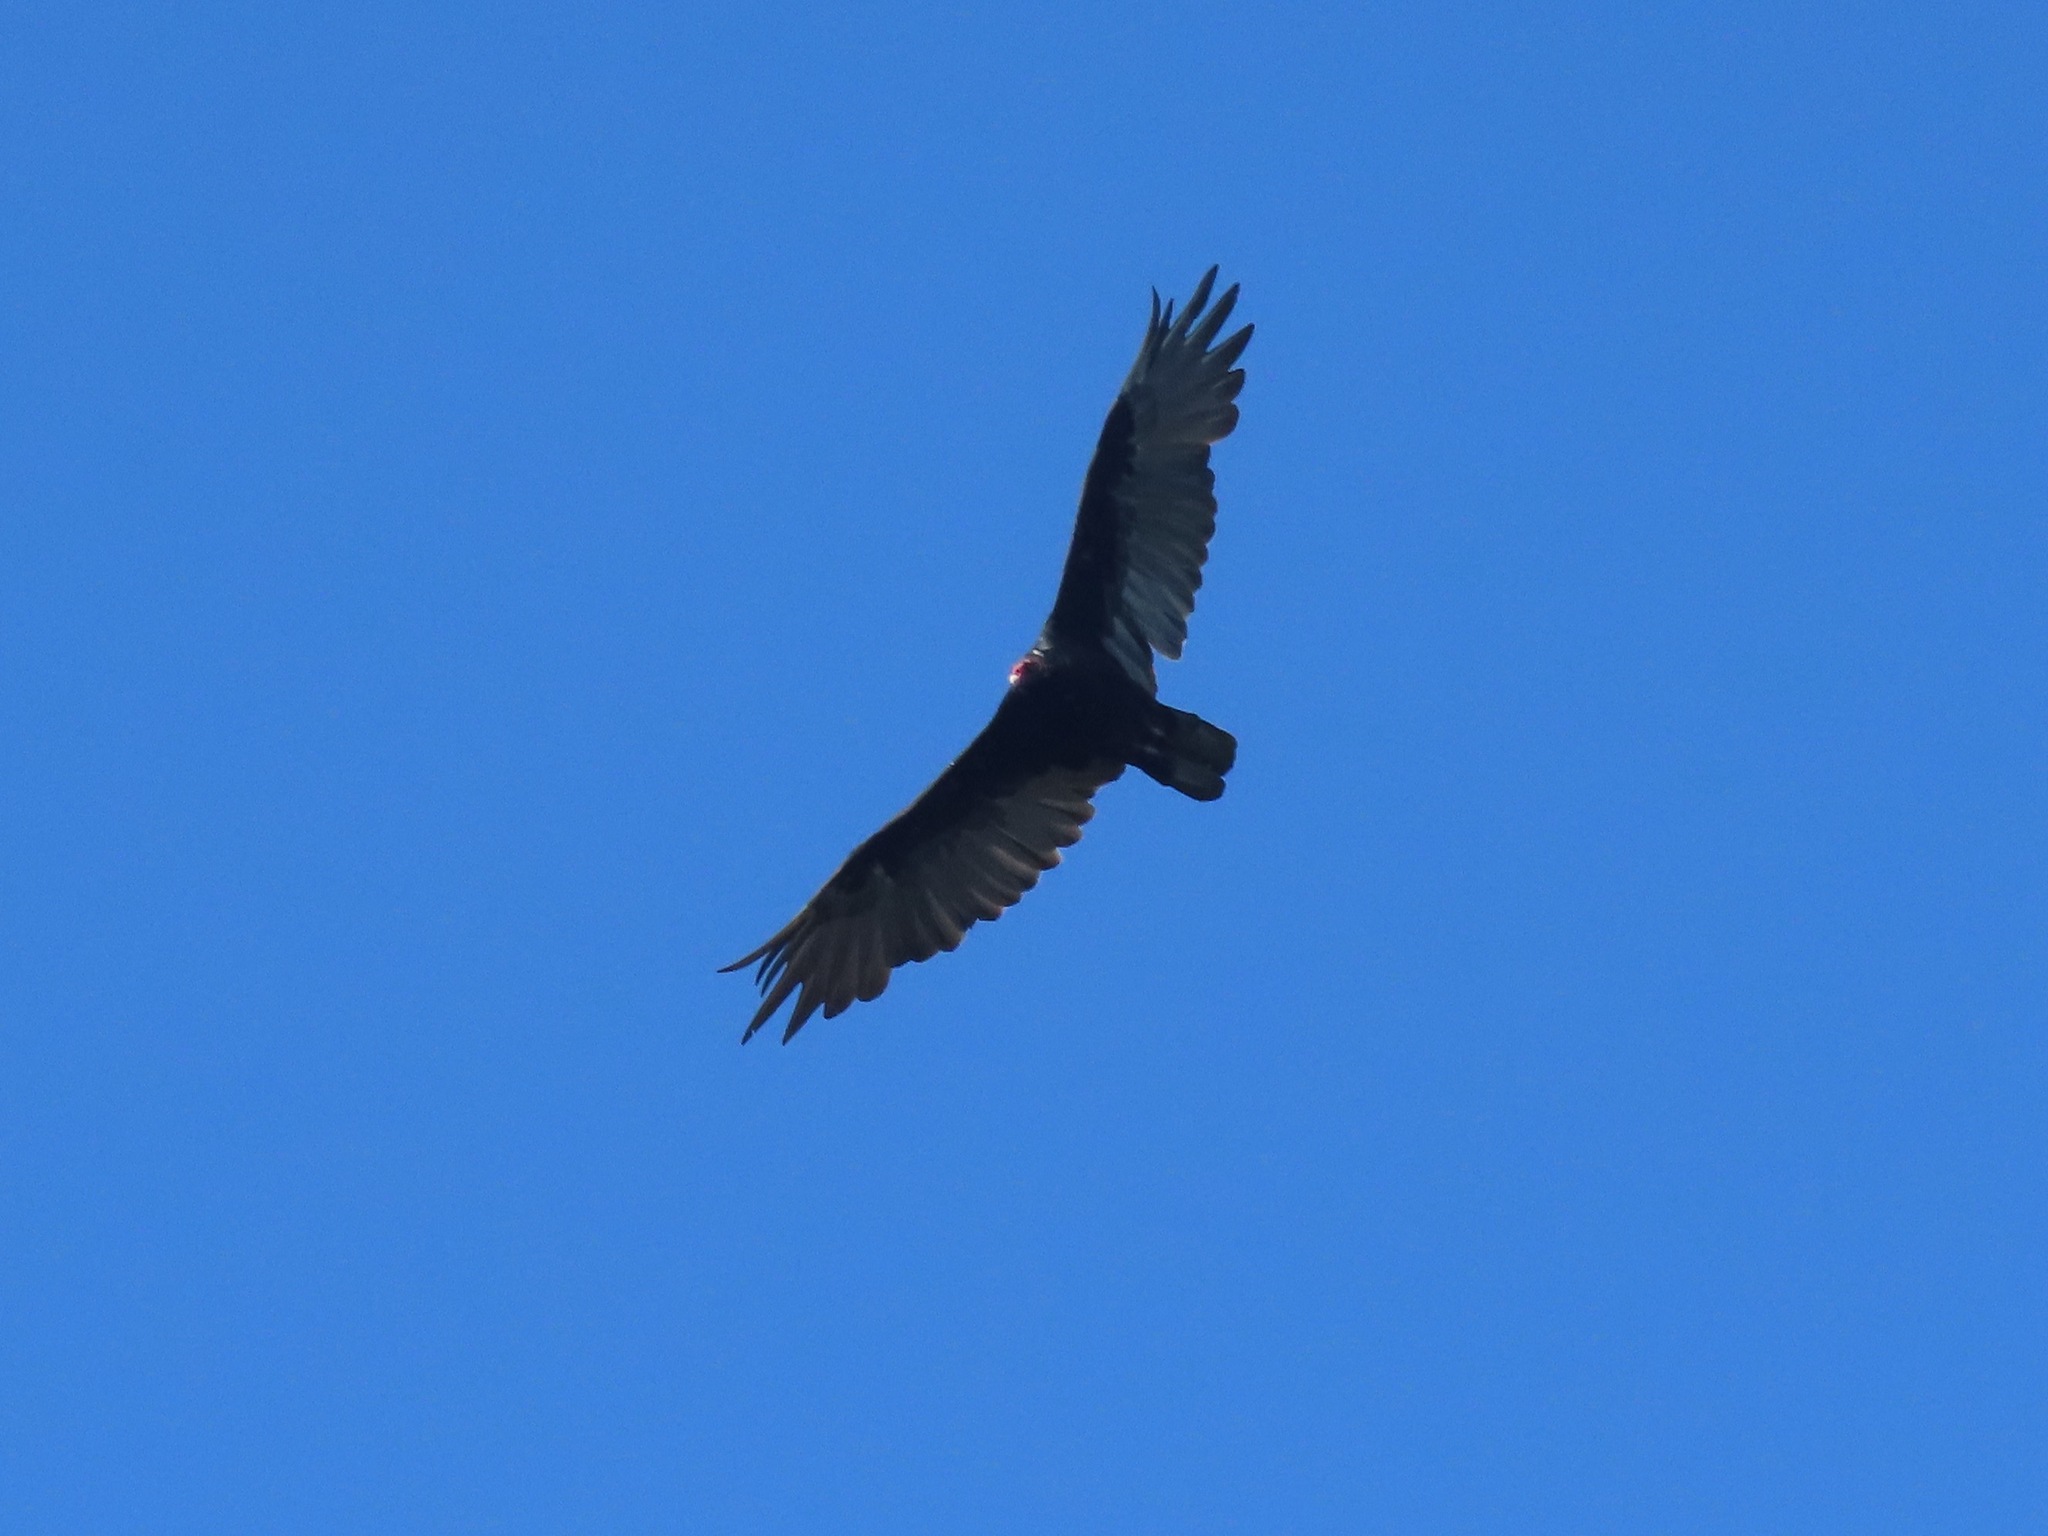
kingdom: Animalia
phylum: Chordata
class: Aves
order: Accipitriformes
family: Cathartidae
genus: Cathartes
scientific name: Cathartes aura
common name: Turkey vulture
